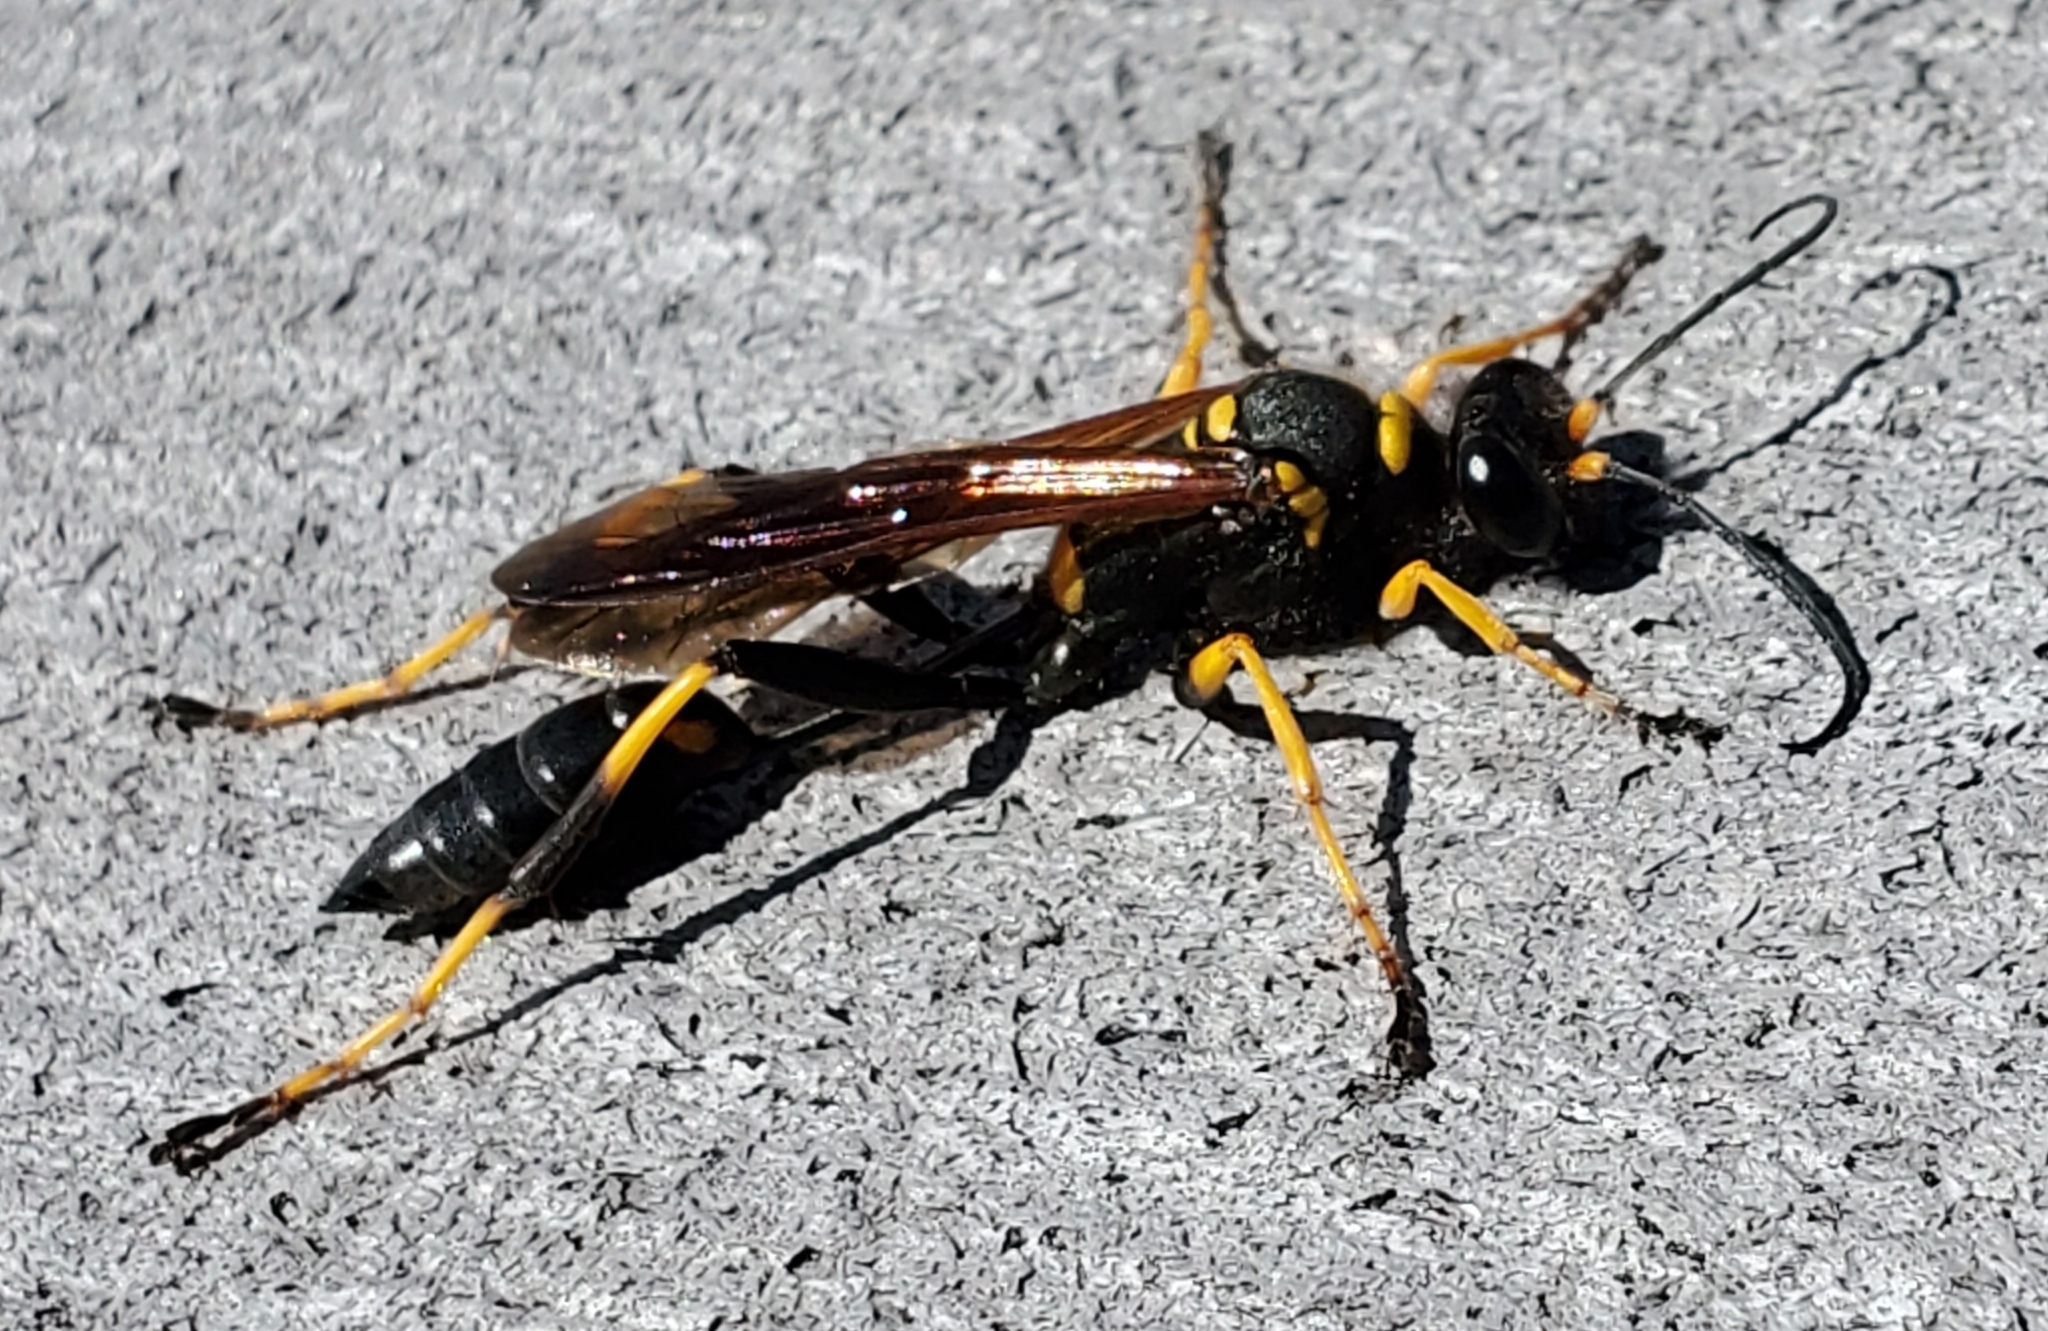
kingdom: Animalia
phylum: Arthropoda
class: Insecta
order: Hymenoptera
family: Sphecidae
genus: Sceliphron
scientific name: Sceliphron caementarium
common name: Mud dauber
